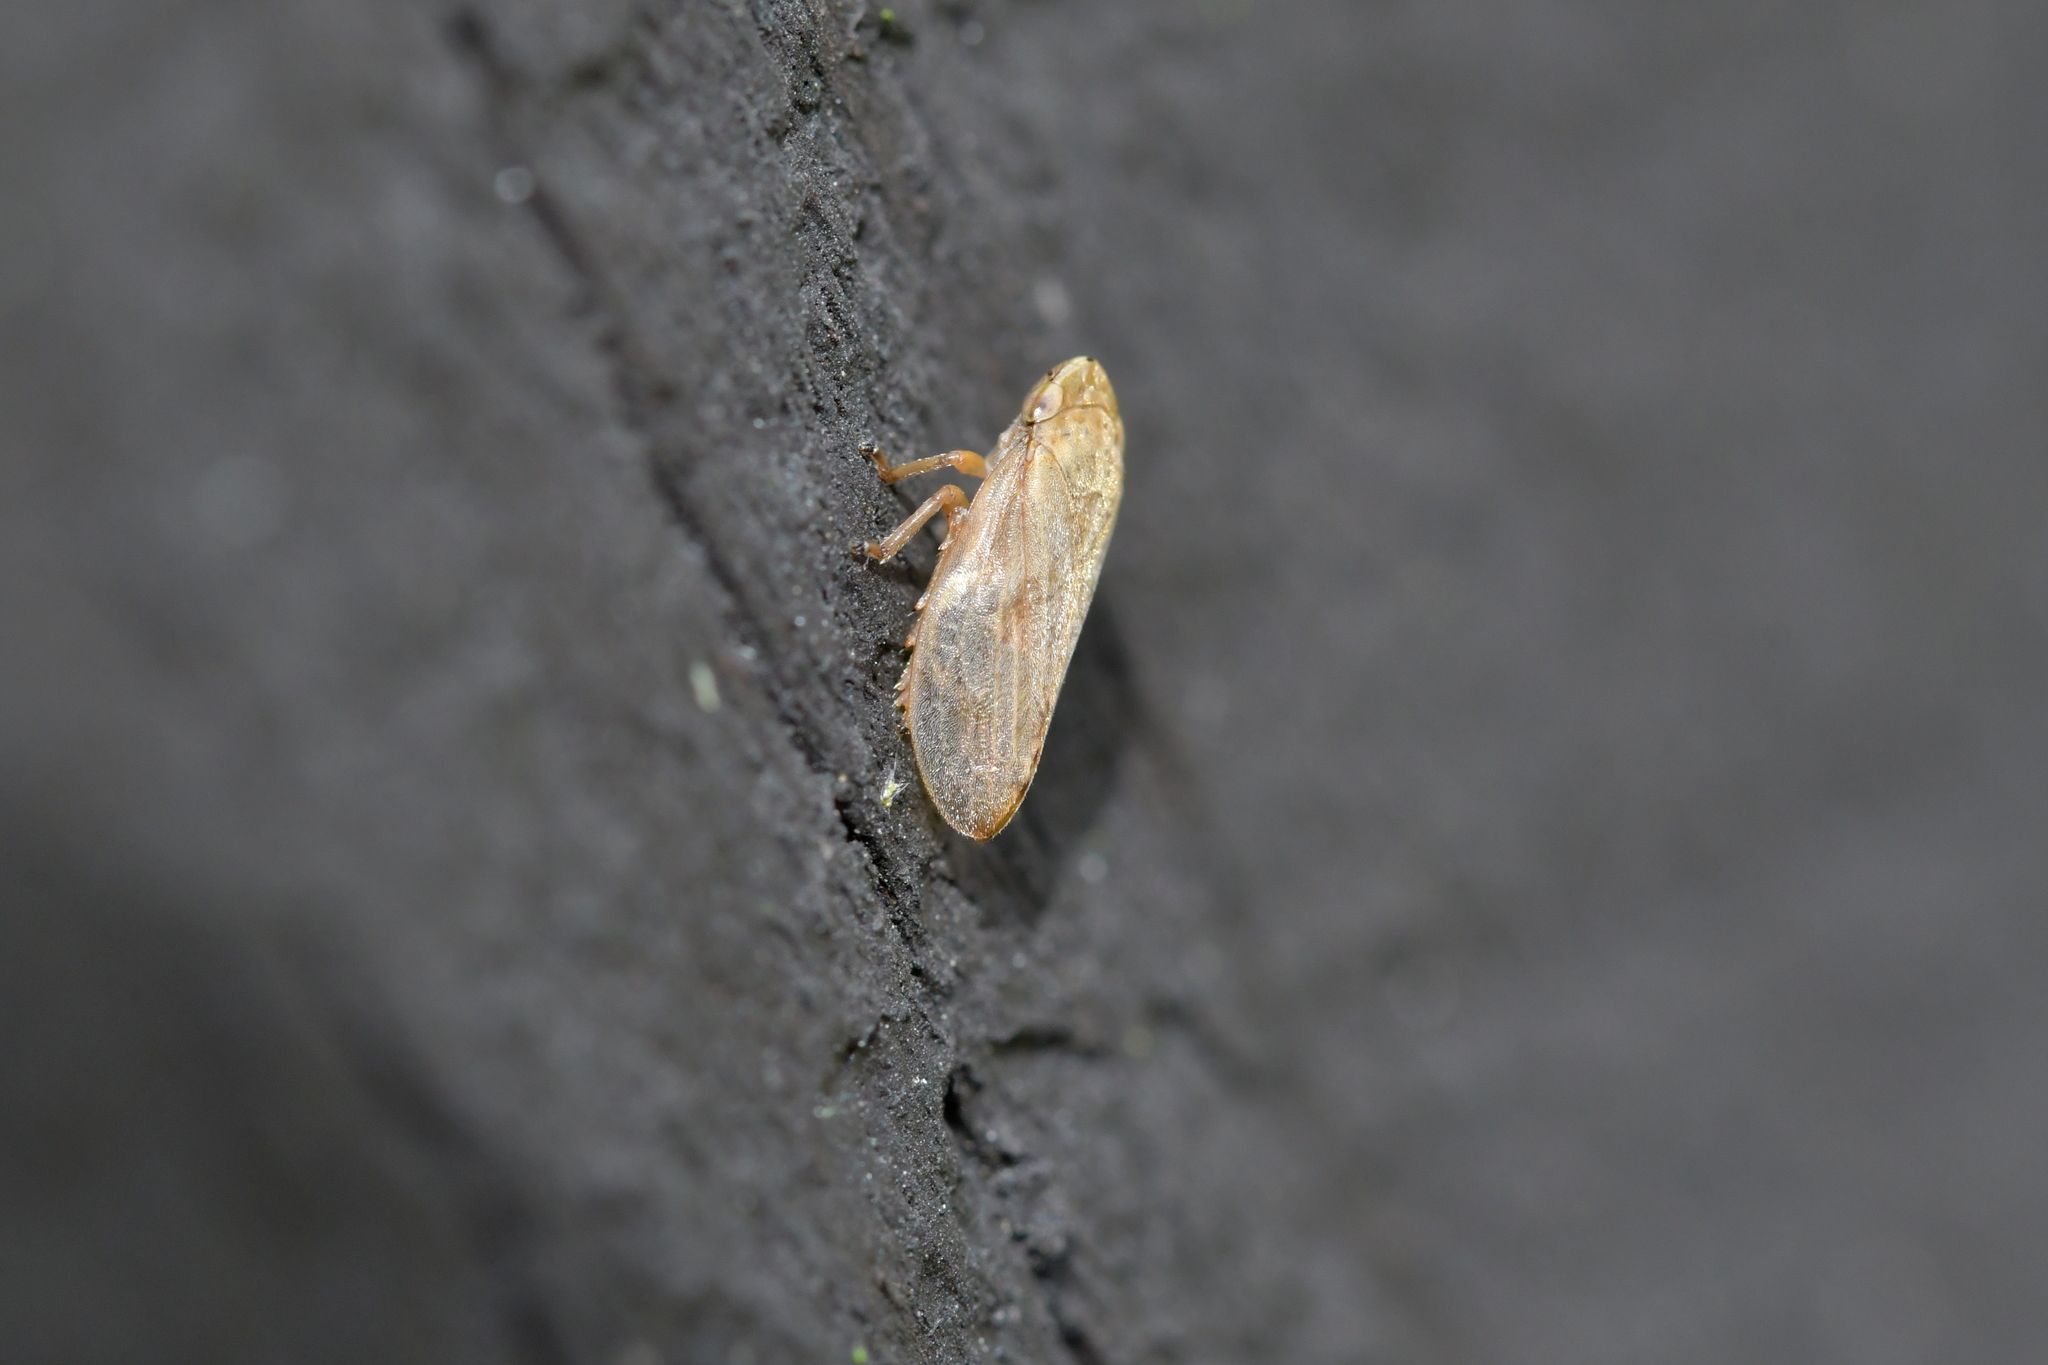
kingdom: Animalia
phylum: Arthropoda
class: Insecta
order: Hemiptera
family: Aphrophoridae
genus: Philaenus
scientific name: Philaenus spumarius
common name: Meadow spittlebug
